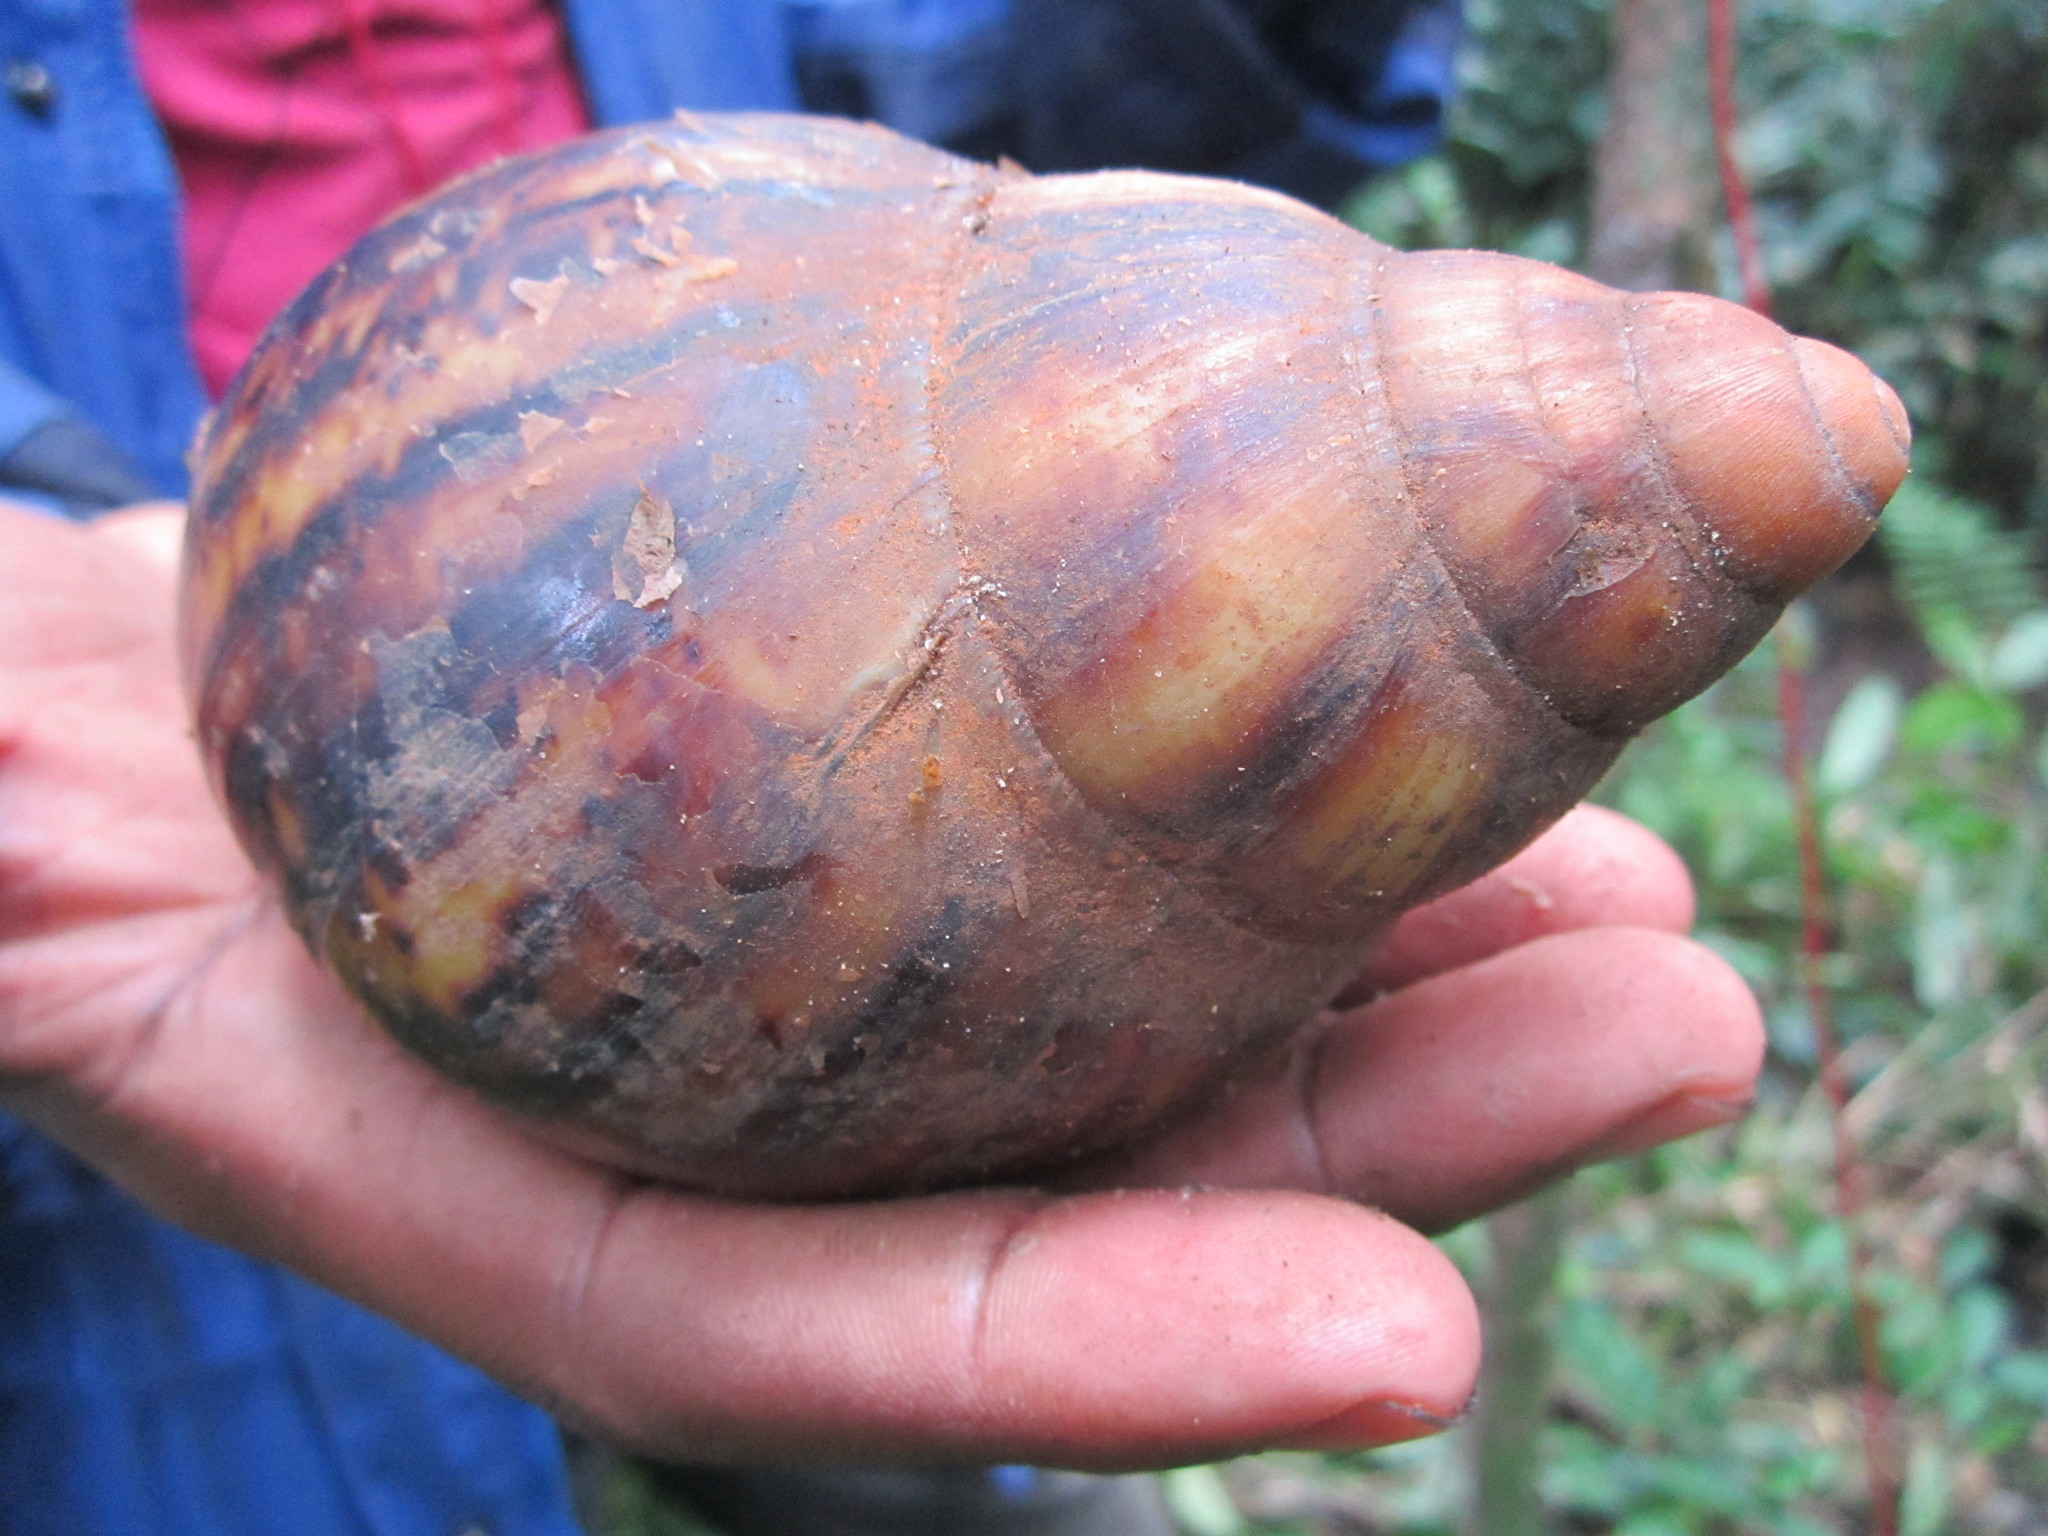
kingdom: Animalia
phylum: Mollusca
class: Gastropoda
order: Stylommatophora
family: Achatinidae
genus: Archachatina
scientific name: Archachatina marginata
